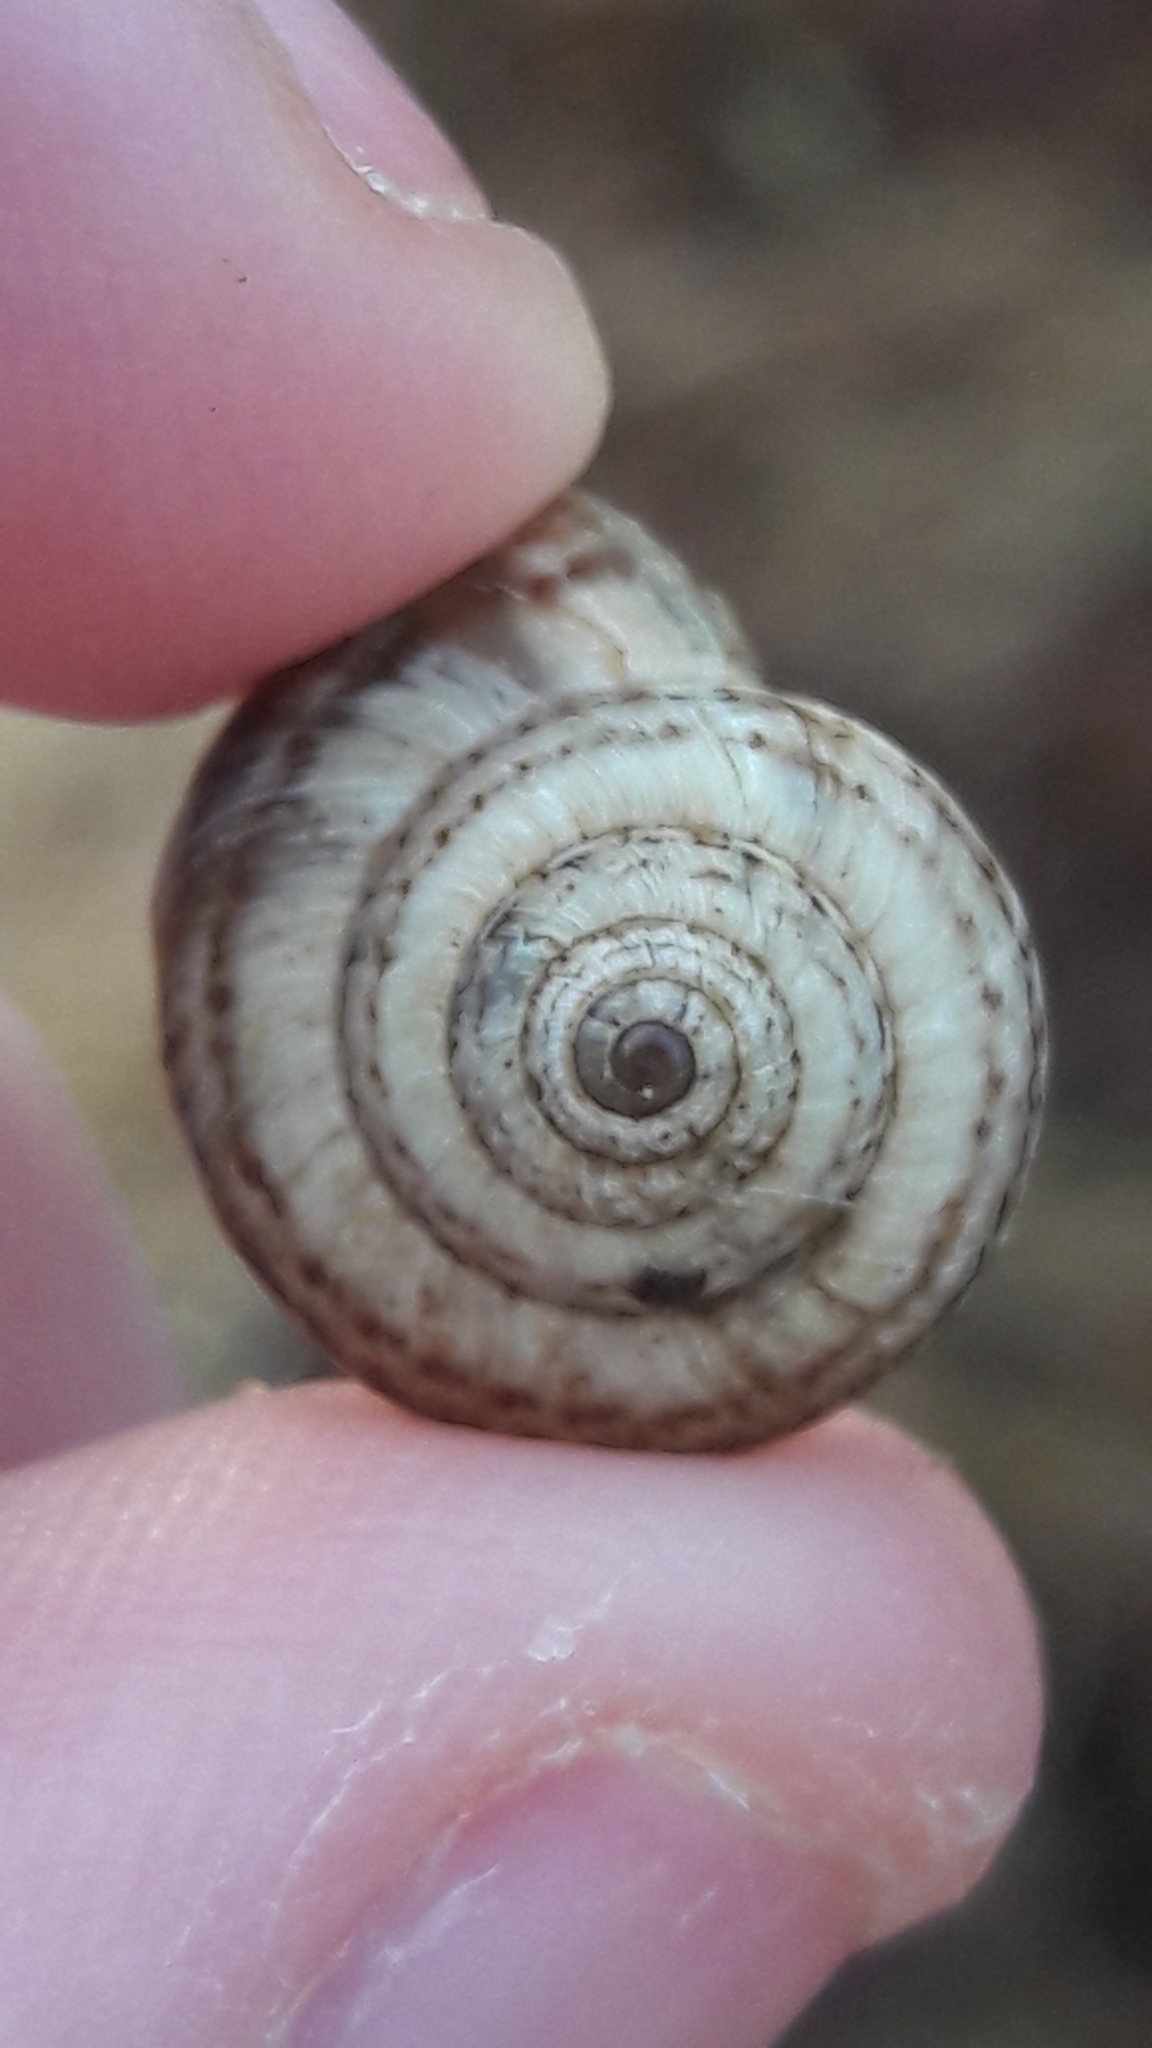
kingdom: Animalia
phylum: Mollusca
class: Gastropoda
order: Stylommatophora
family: Geomitridae
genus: Xeropicta
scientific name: Xeropicta krynickii
